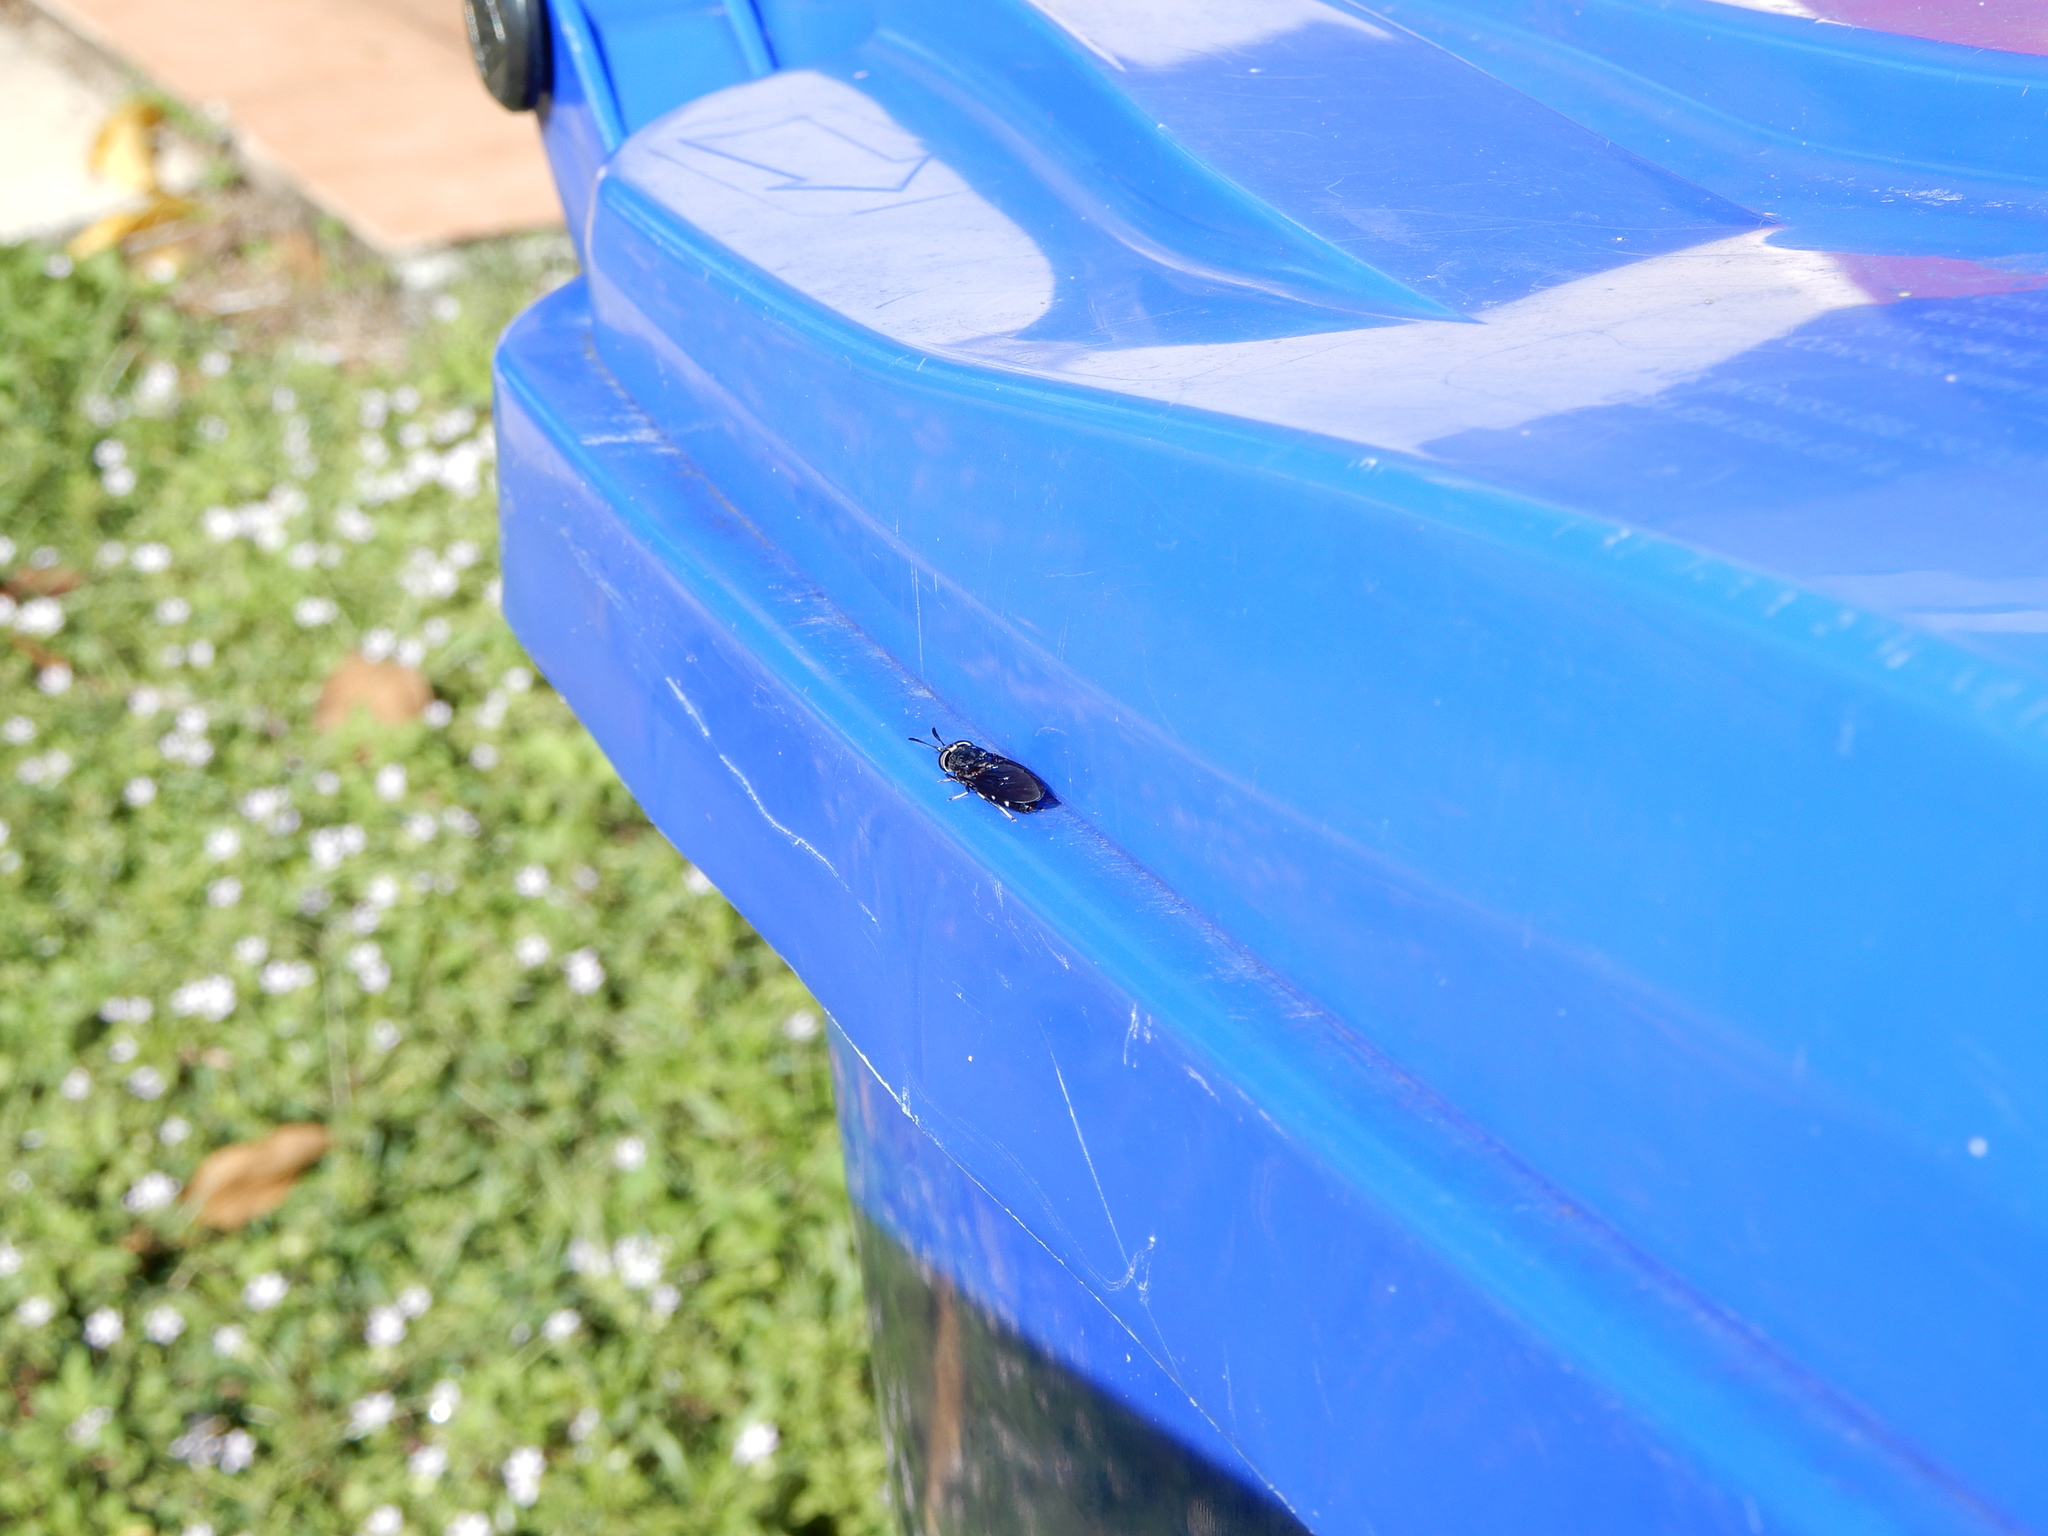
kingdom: Animalia
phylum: Arthropoda
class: Insecta
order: Diptera
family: Stratiomyidae
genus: Hermetia
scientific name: Hermetia sexmaculata
